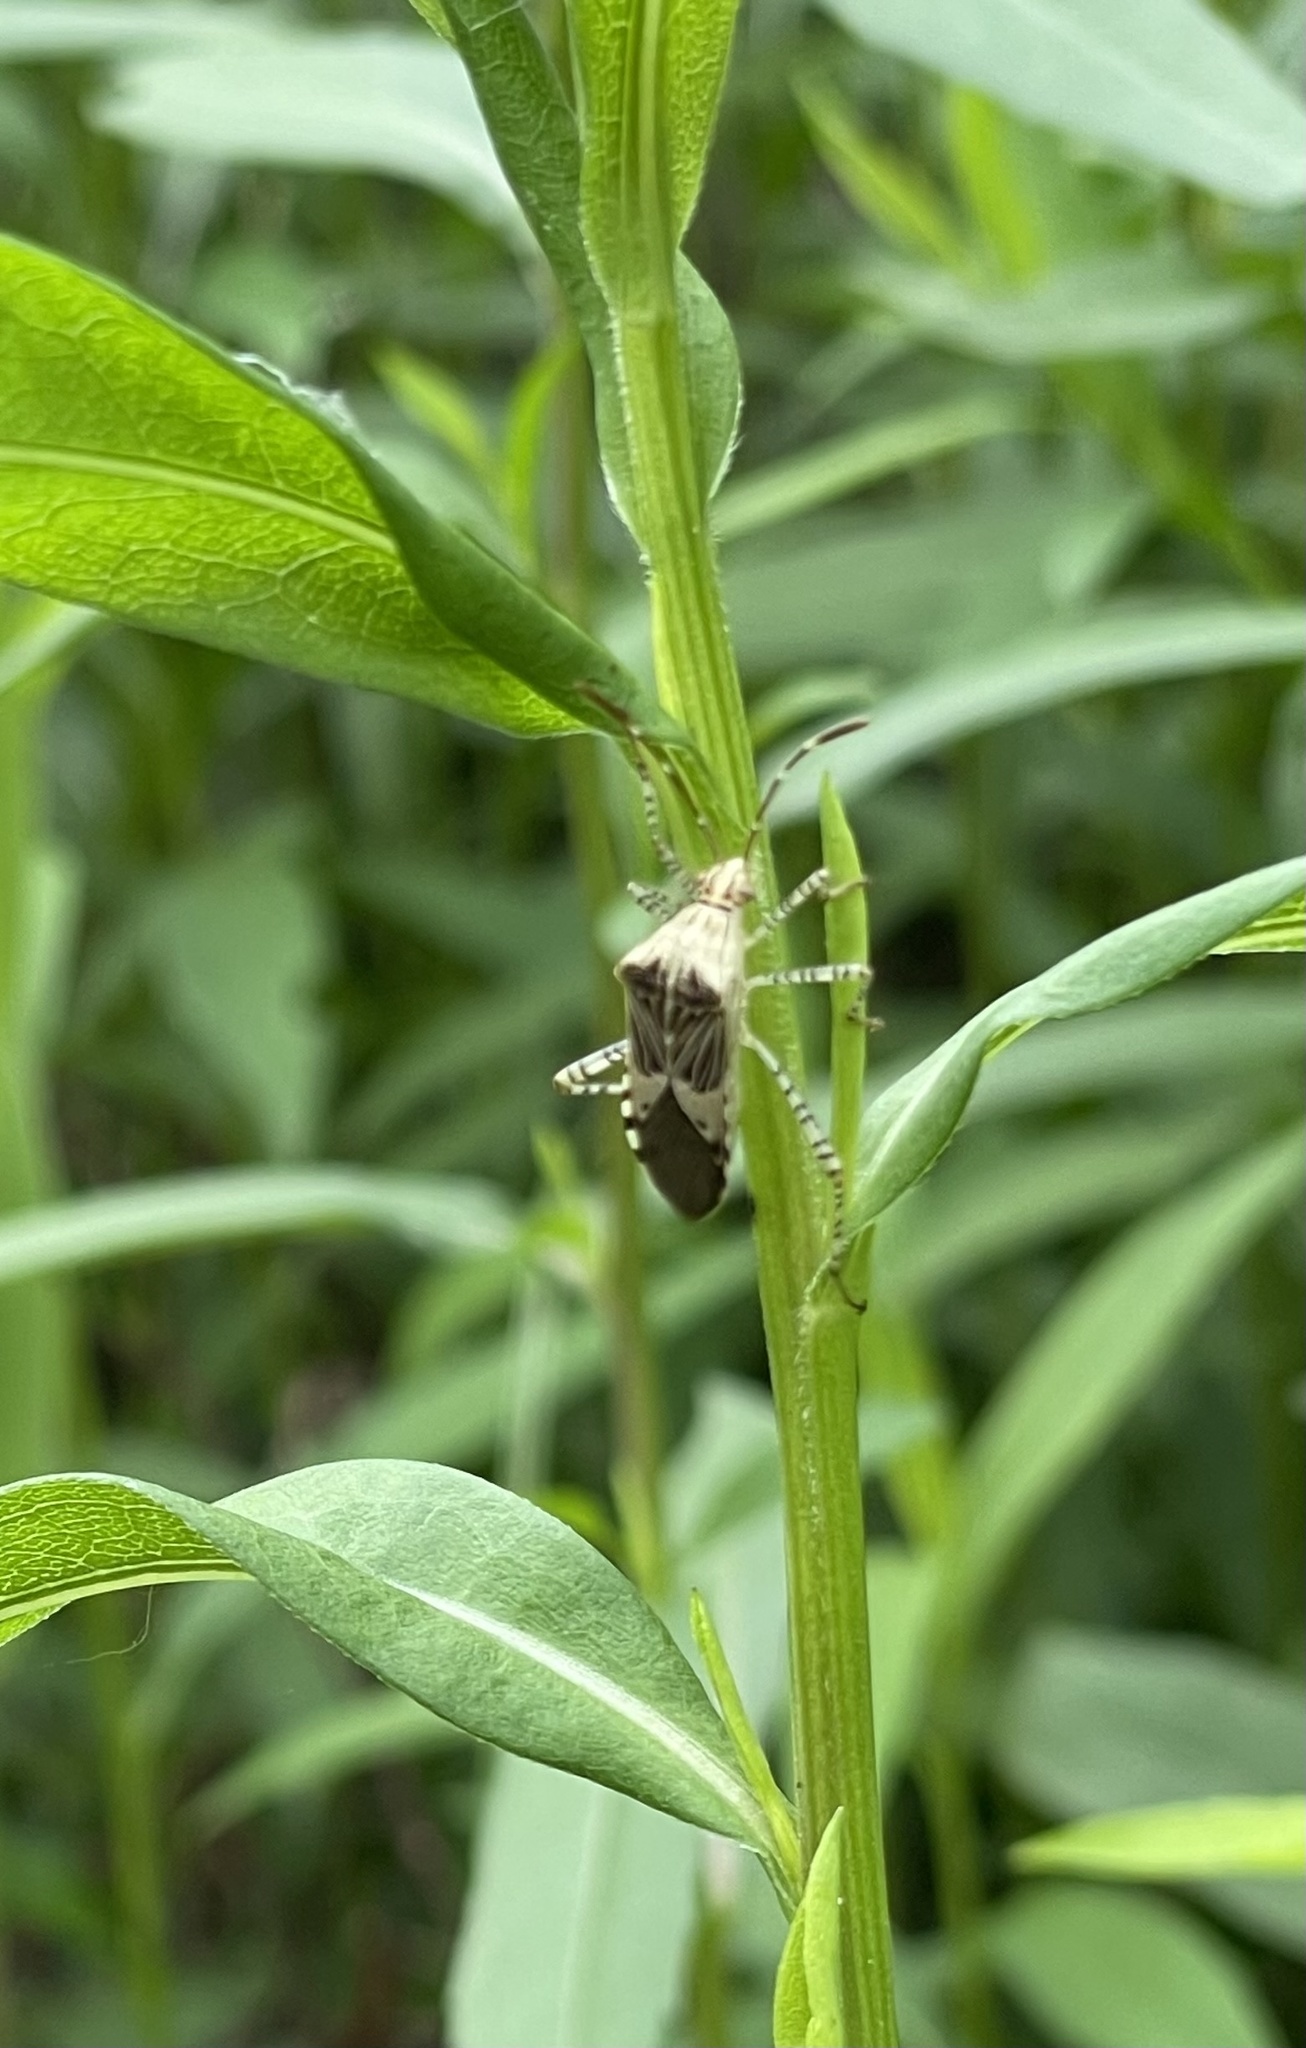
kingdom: Animalia
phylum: Arthropoda
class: Insecta
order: Hemiptera
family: Coreidae
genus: Hypselonotus
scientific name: Hypselonotus punctiventris
